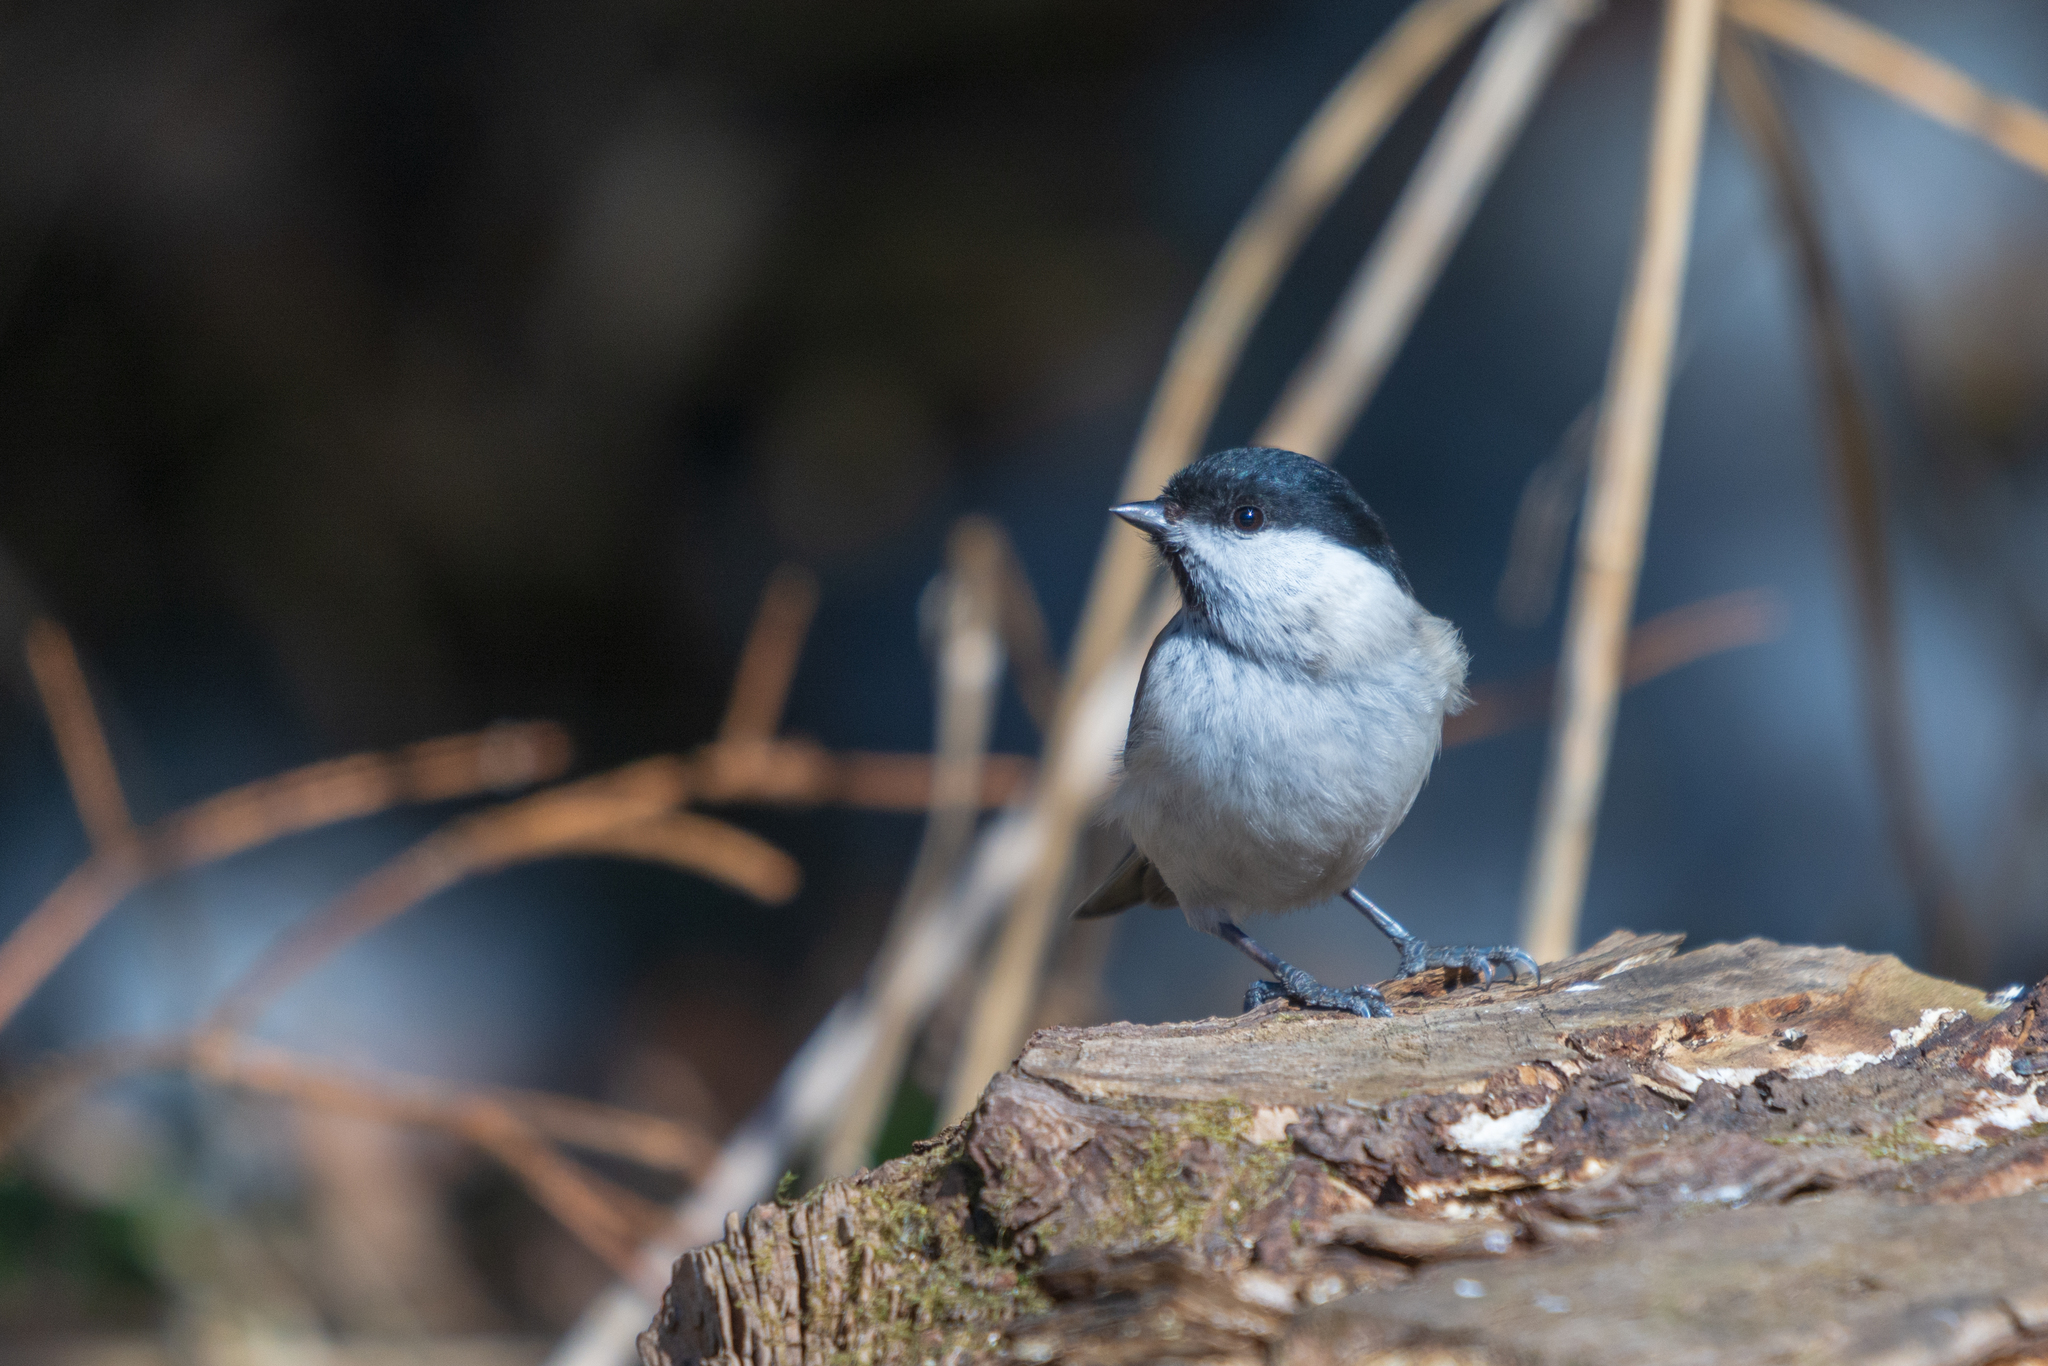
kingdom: Animalia
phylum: Chordata
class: Aves
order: Passeriformes
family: Paridae
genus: Poecile
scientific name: Poecile palustris
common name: Marsh tit
